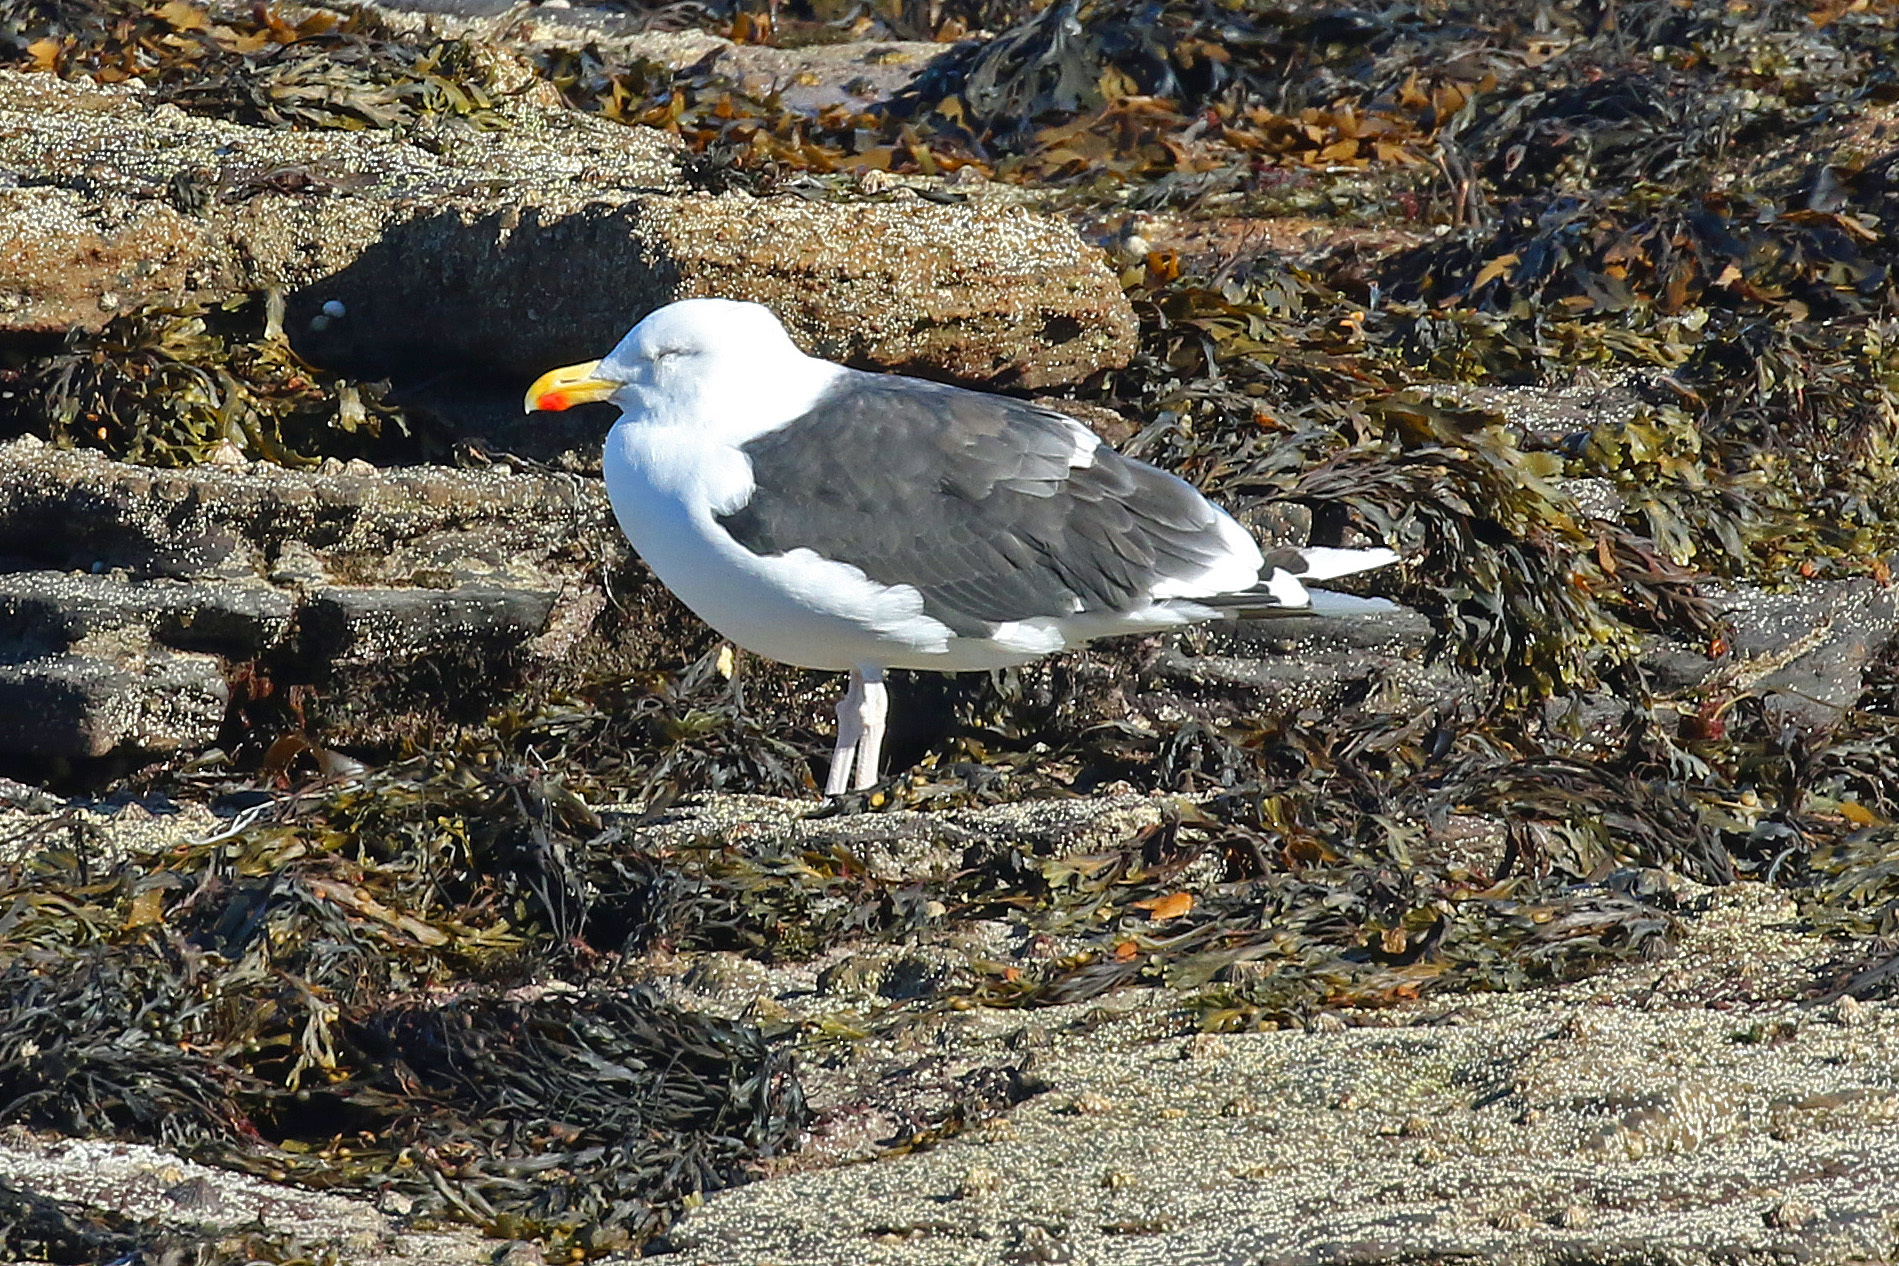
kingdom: Animalia
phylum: Chordata
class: Aves
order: Charadriiformes
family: Laridae
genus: Larus
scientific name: Larus marinus
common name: Great black-backed gull
